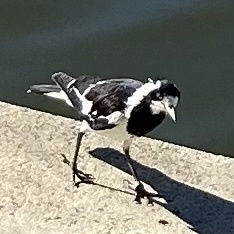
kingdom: Animalia
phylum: Chordata
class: Aves
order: Passeriformes
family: Monarchidae
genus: Grallina
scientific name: Grallina cyanoleuca
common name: Magpie-lark
